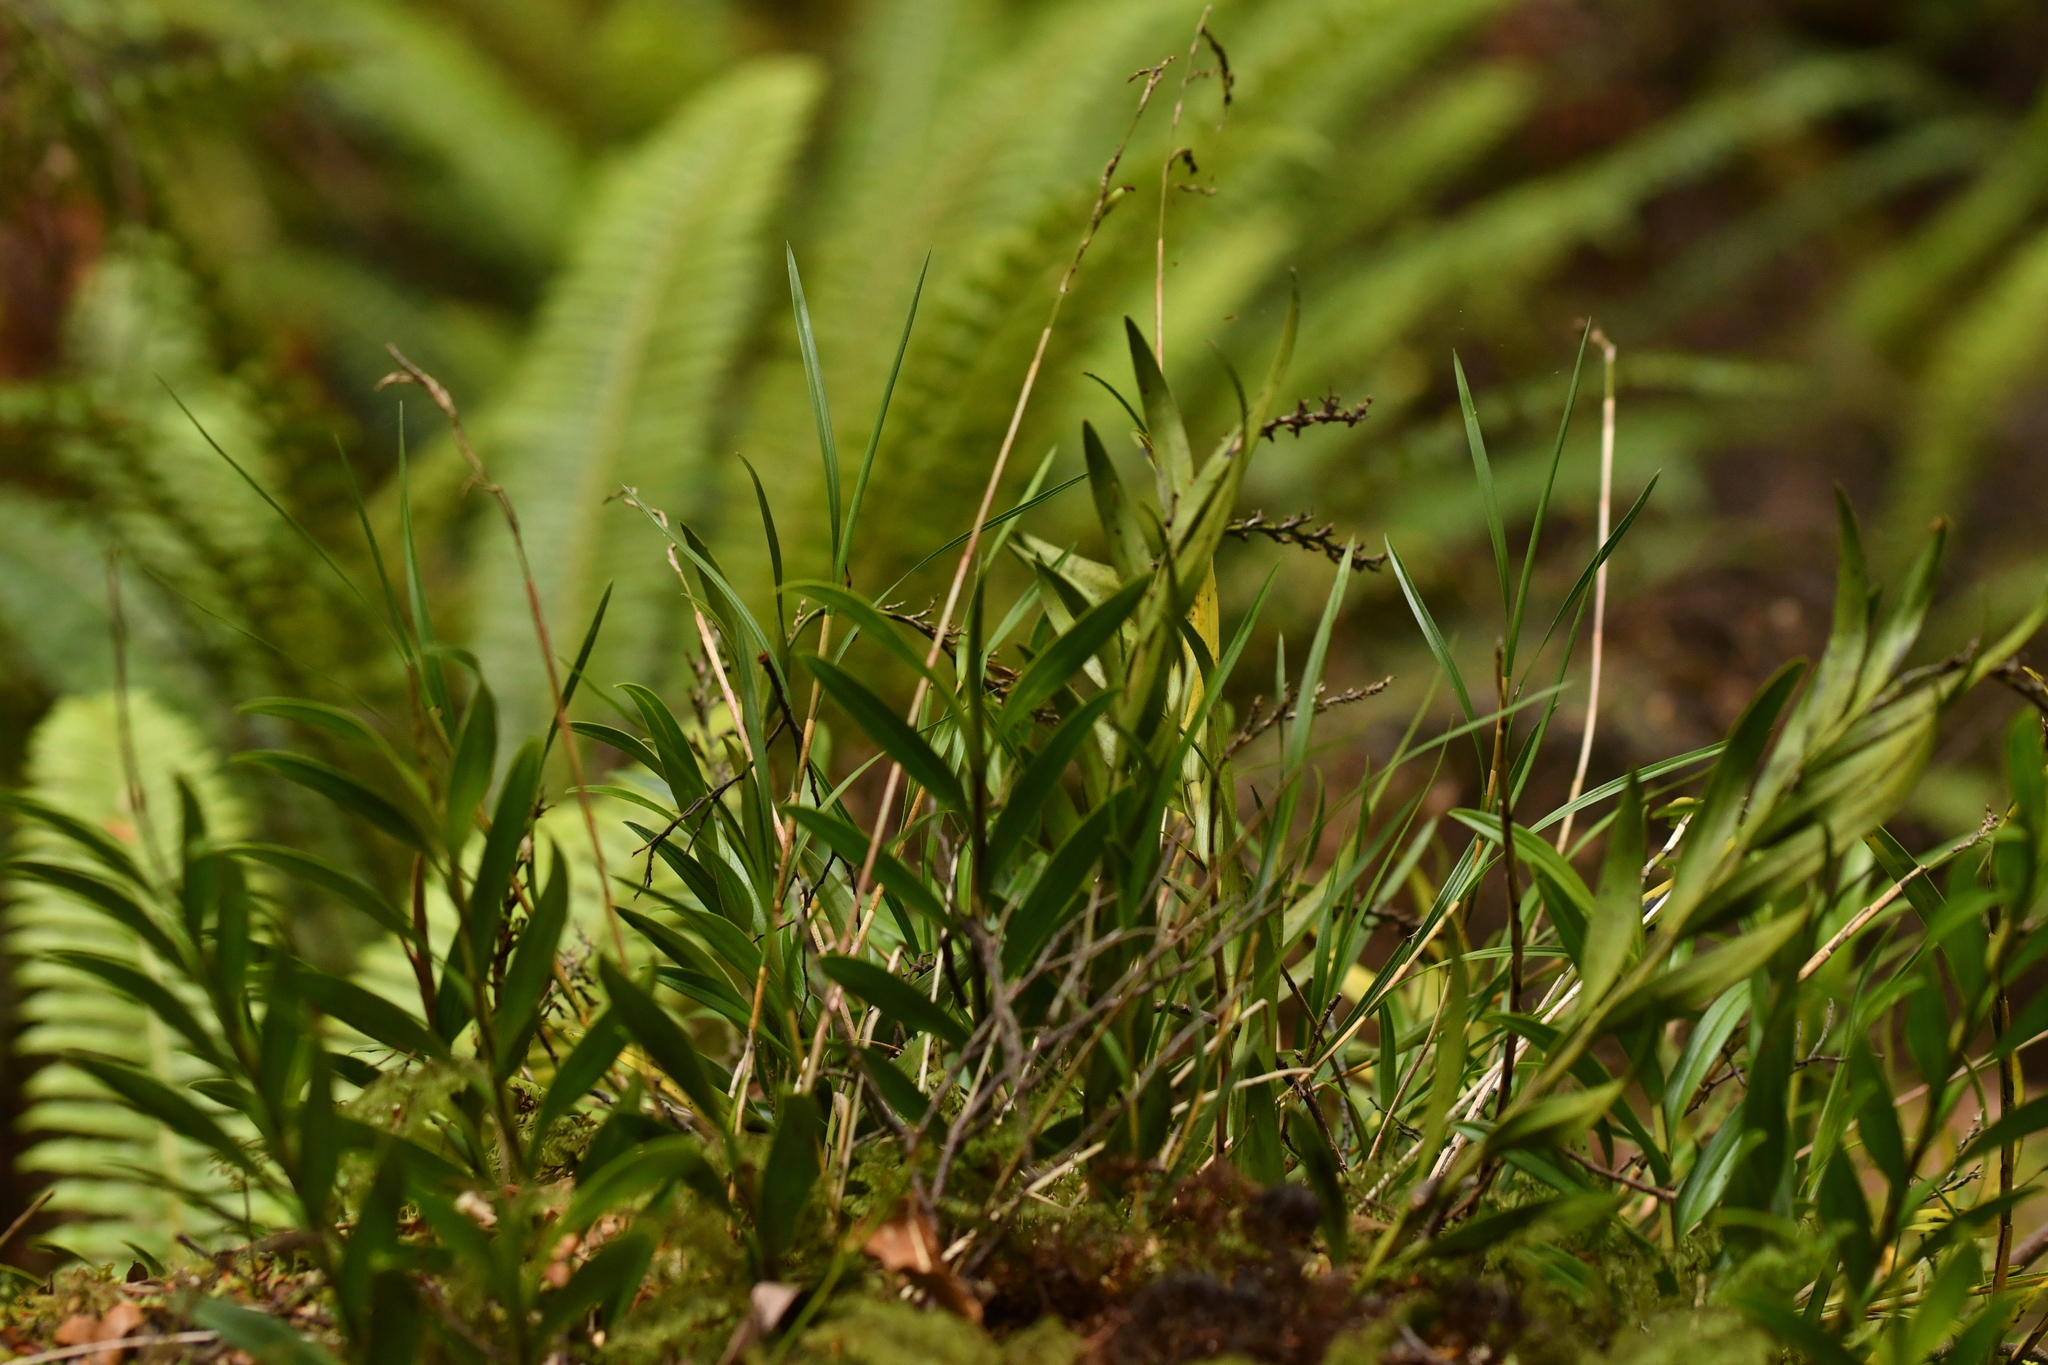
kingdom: Plantae
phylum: Tracheophyta
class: Liliopsida
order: Asparagales
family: Orchidaceae
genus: Earina
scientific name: Earina autumnalis
